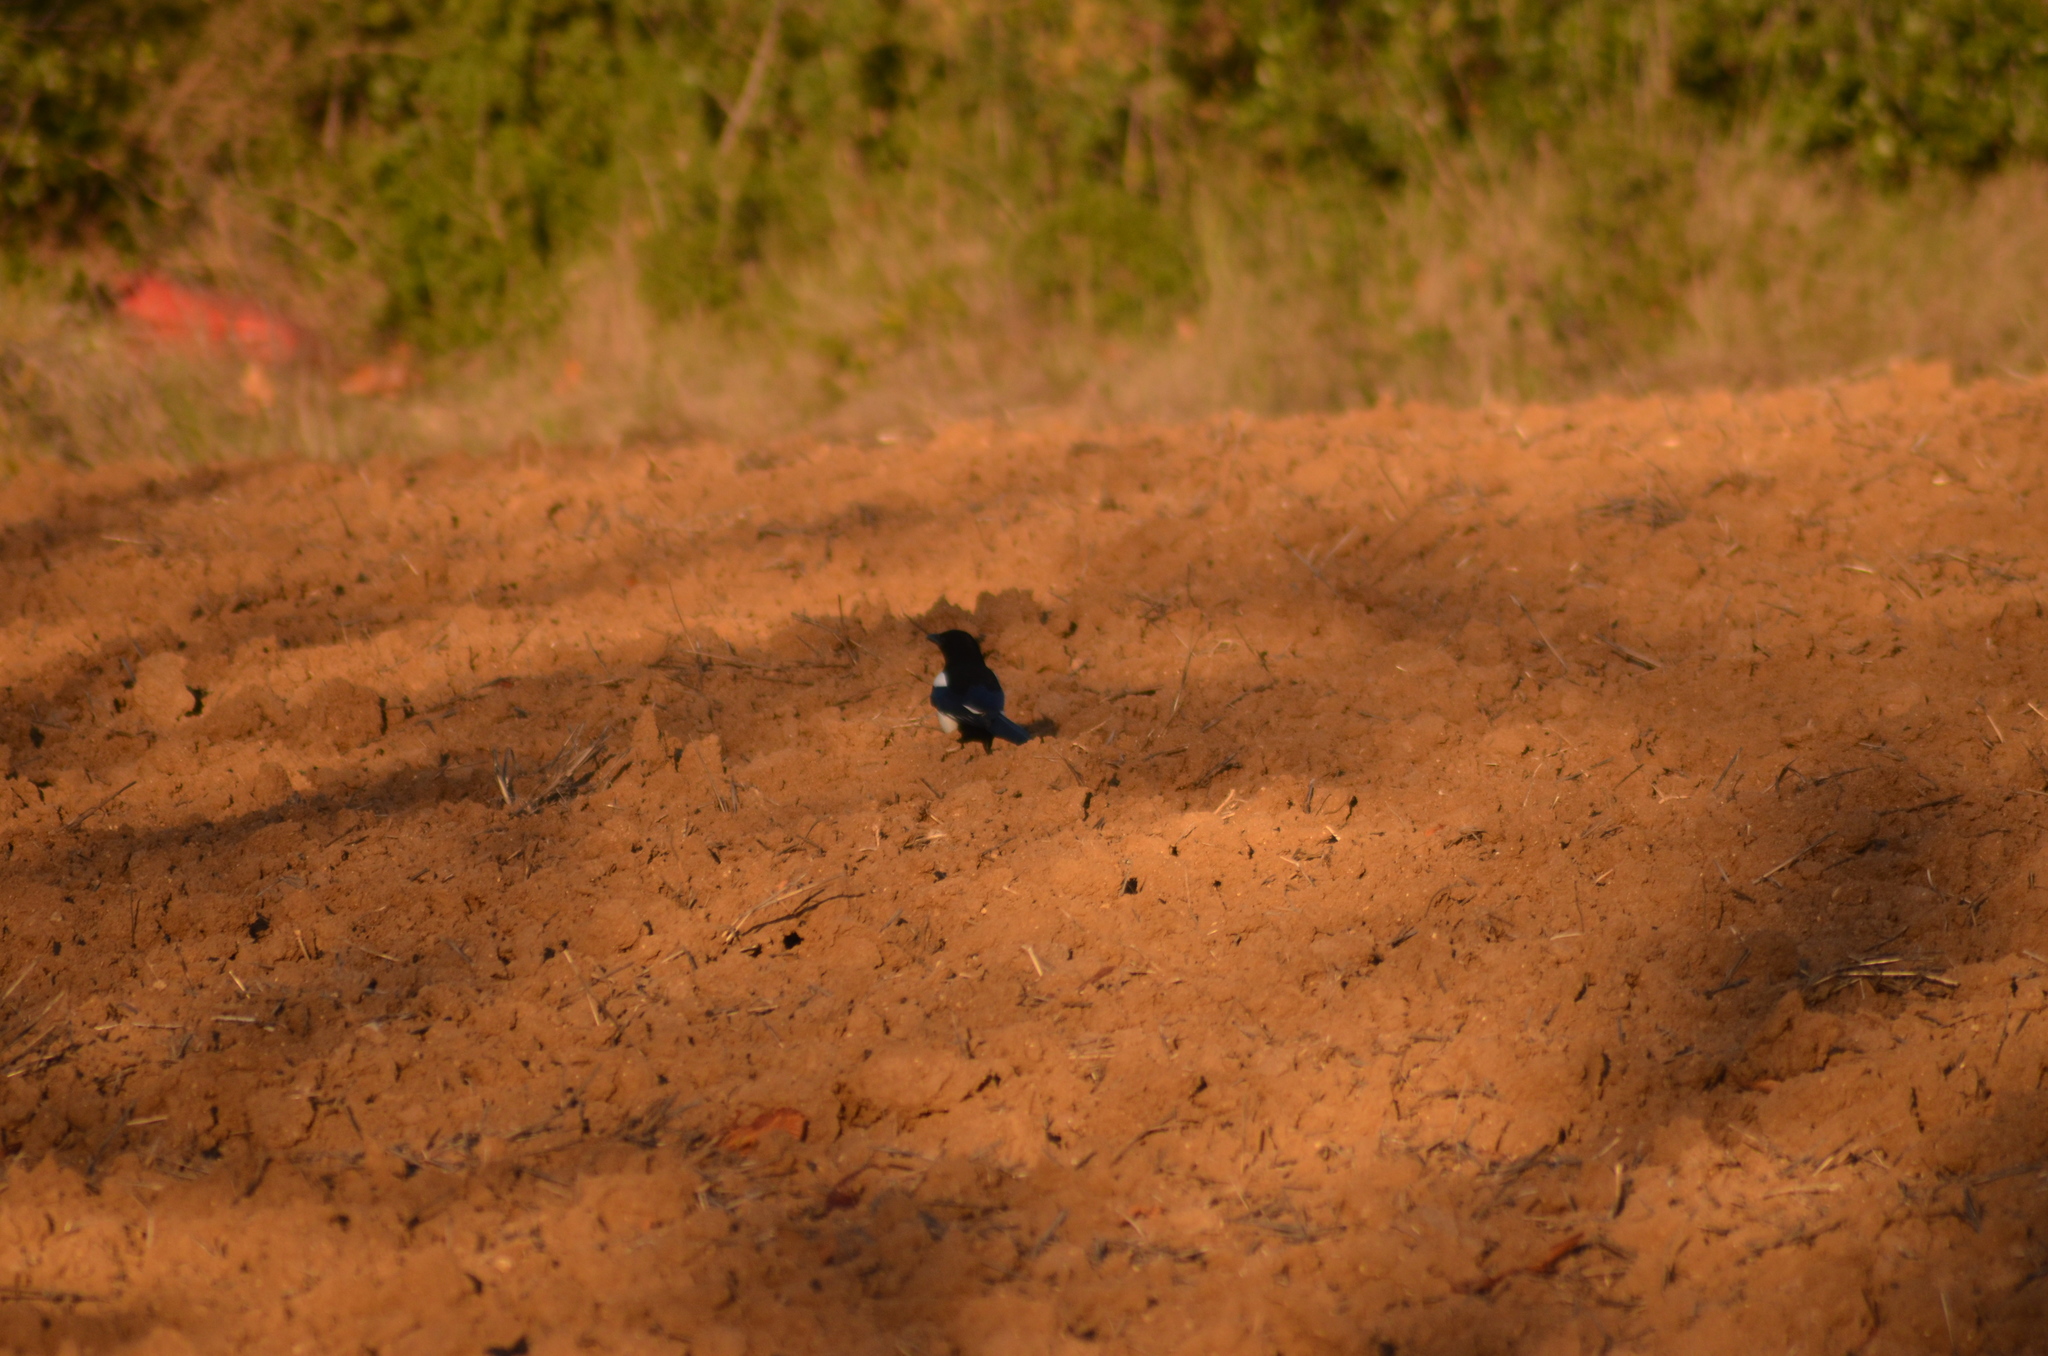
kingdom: Animalia
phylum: Chordata
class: Aves
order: Passeriformes
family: Corvidae
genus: Pica
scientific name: Pica pica
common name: Eurasian magpie
